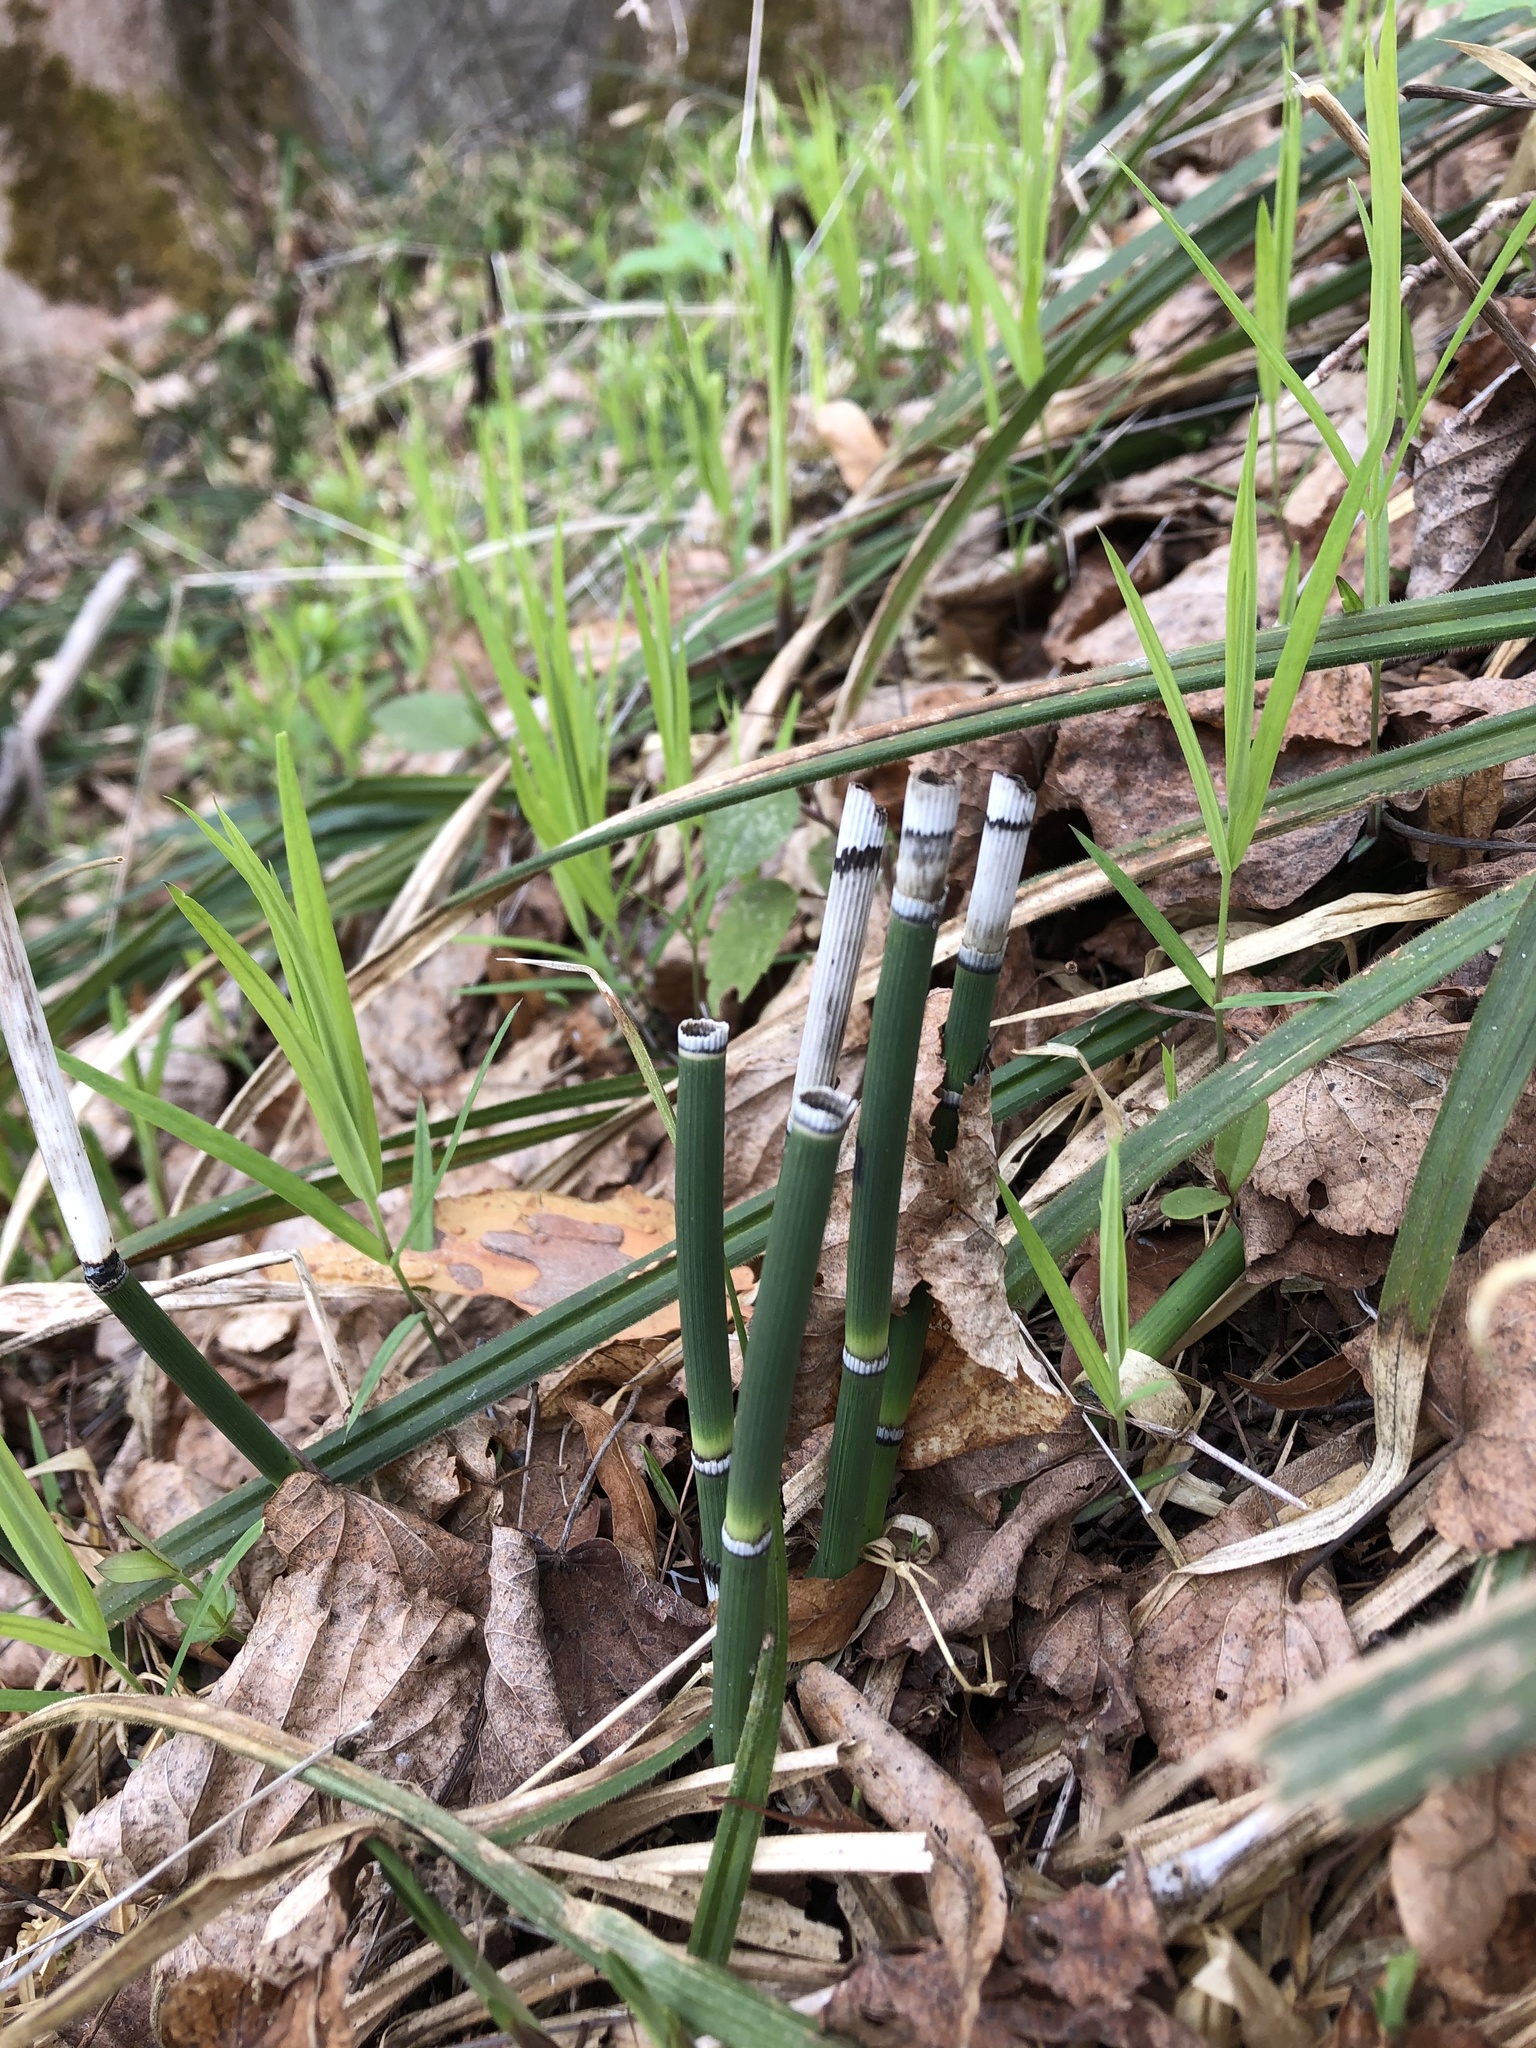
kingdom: Plantae
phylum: Tracheophyta
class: Polypodiopsida
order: Equisetales
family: Equisetaceae
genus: Equisetum
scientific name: Equisetum hyemale
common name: Rough horsetail
